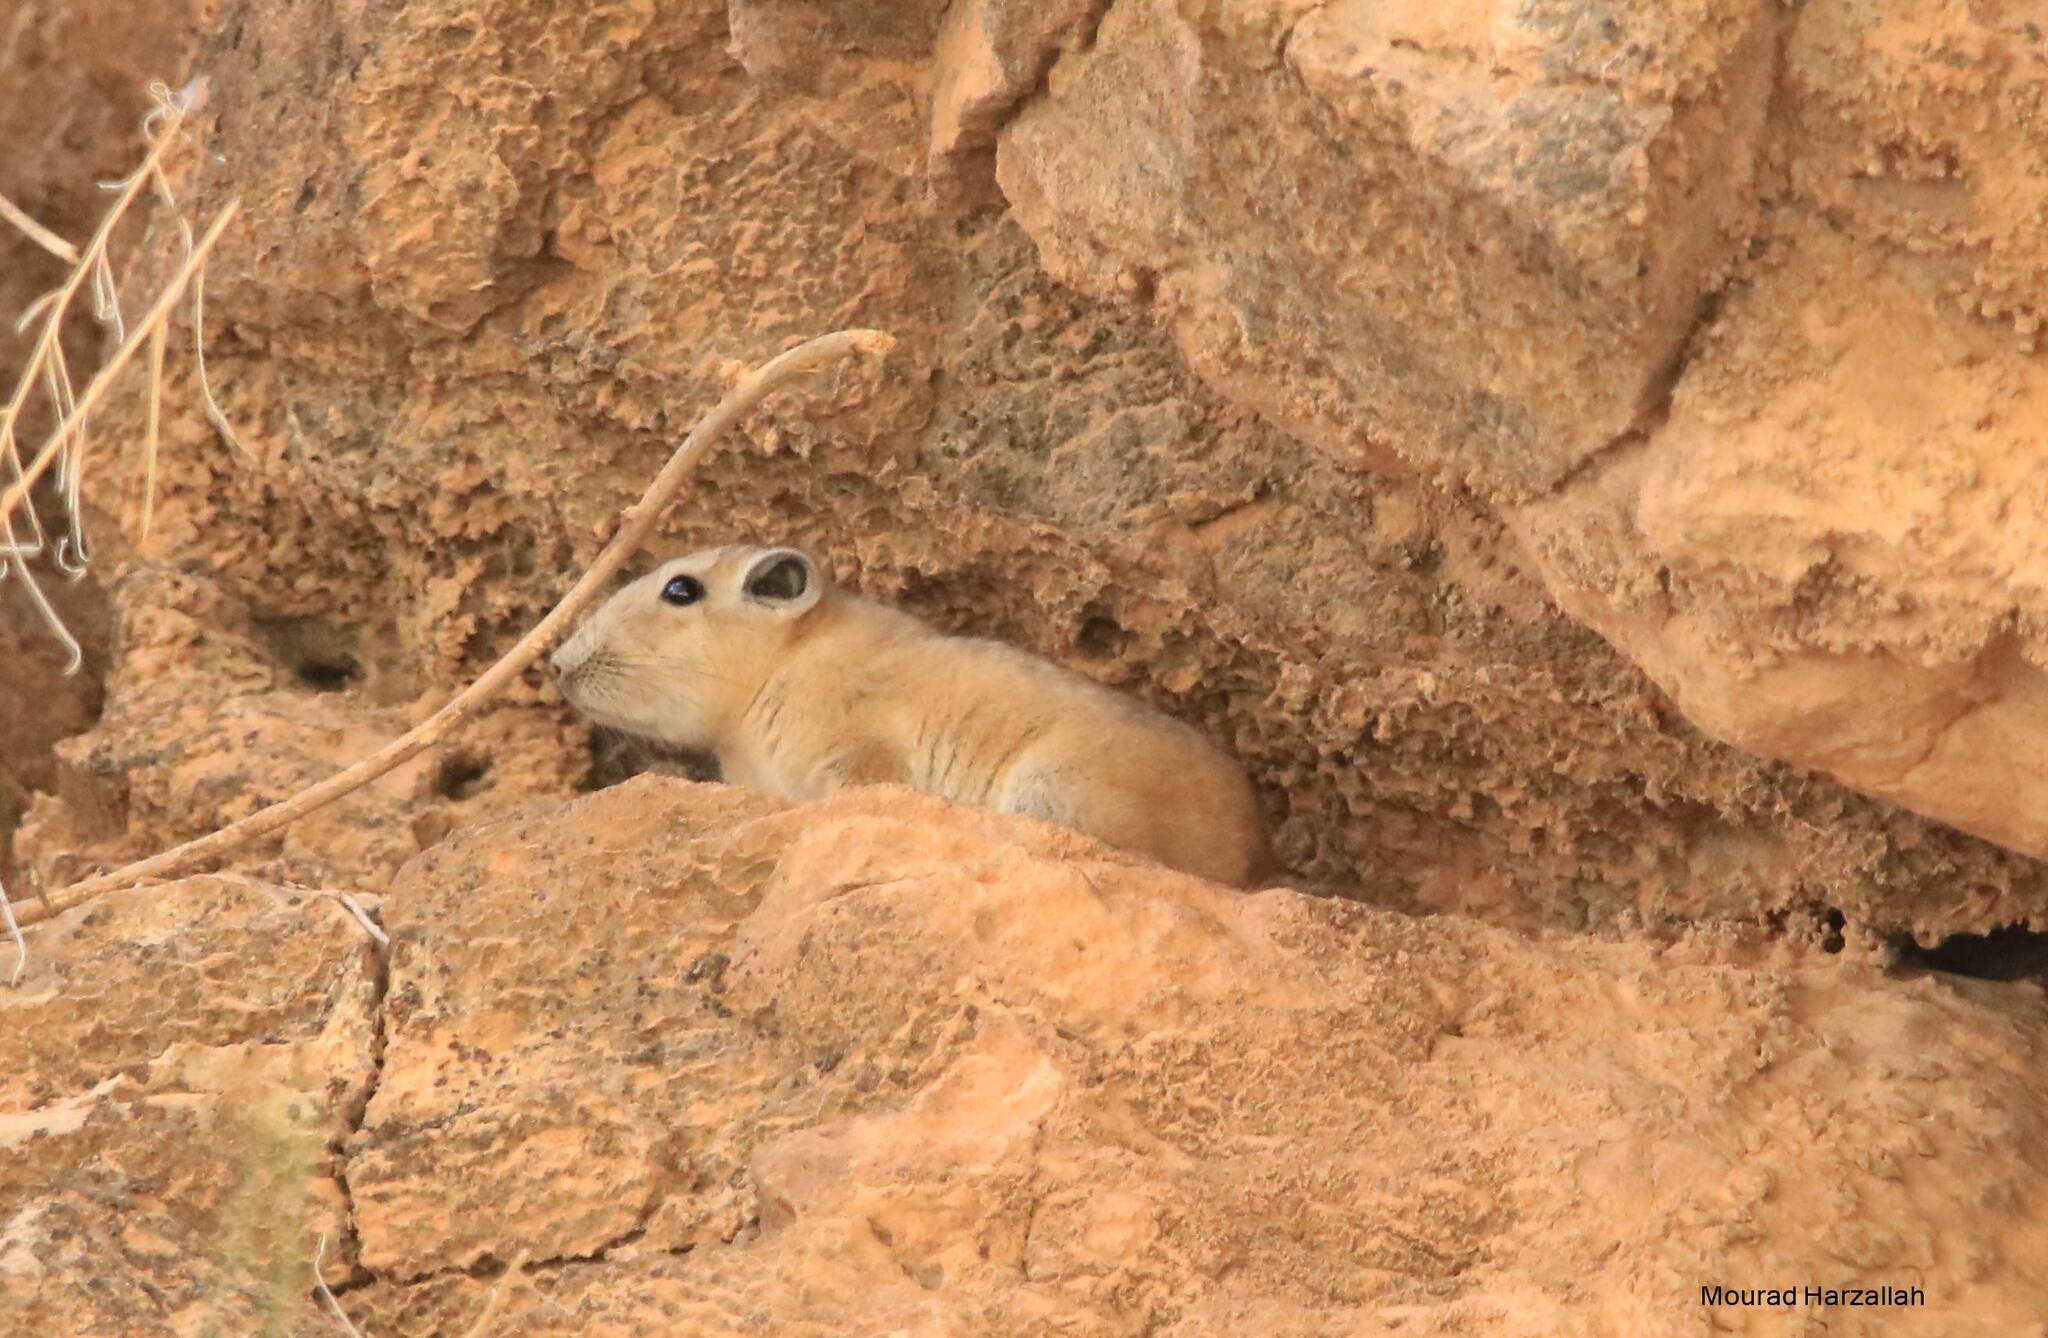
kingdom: Animalia
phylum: Chordata
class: Mammalia
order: Rodentia
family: Ctenodactylidae
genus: Ctenodactylus
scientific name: Ctenodactylus gundi
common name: Common gundi
